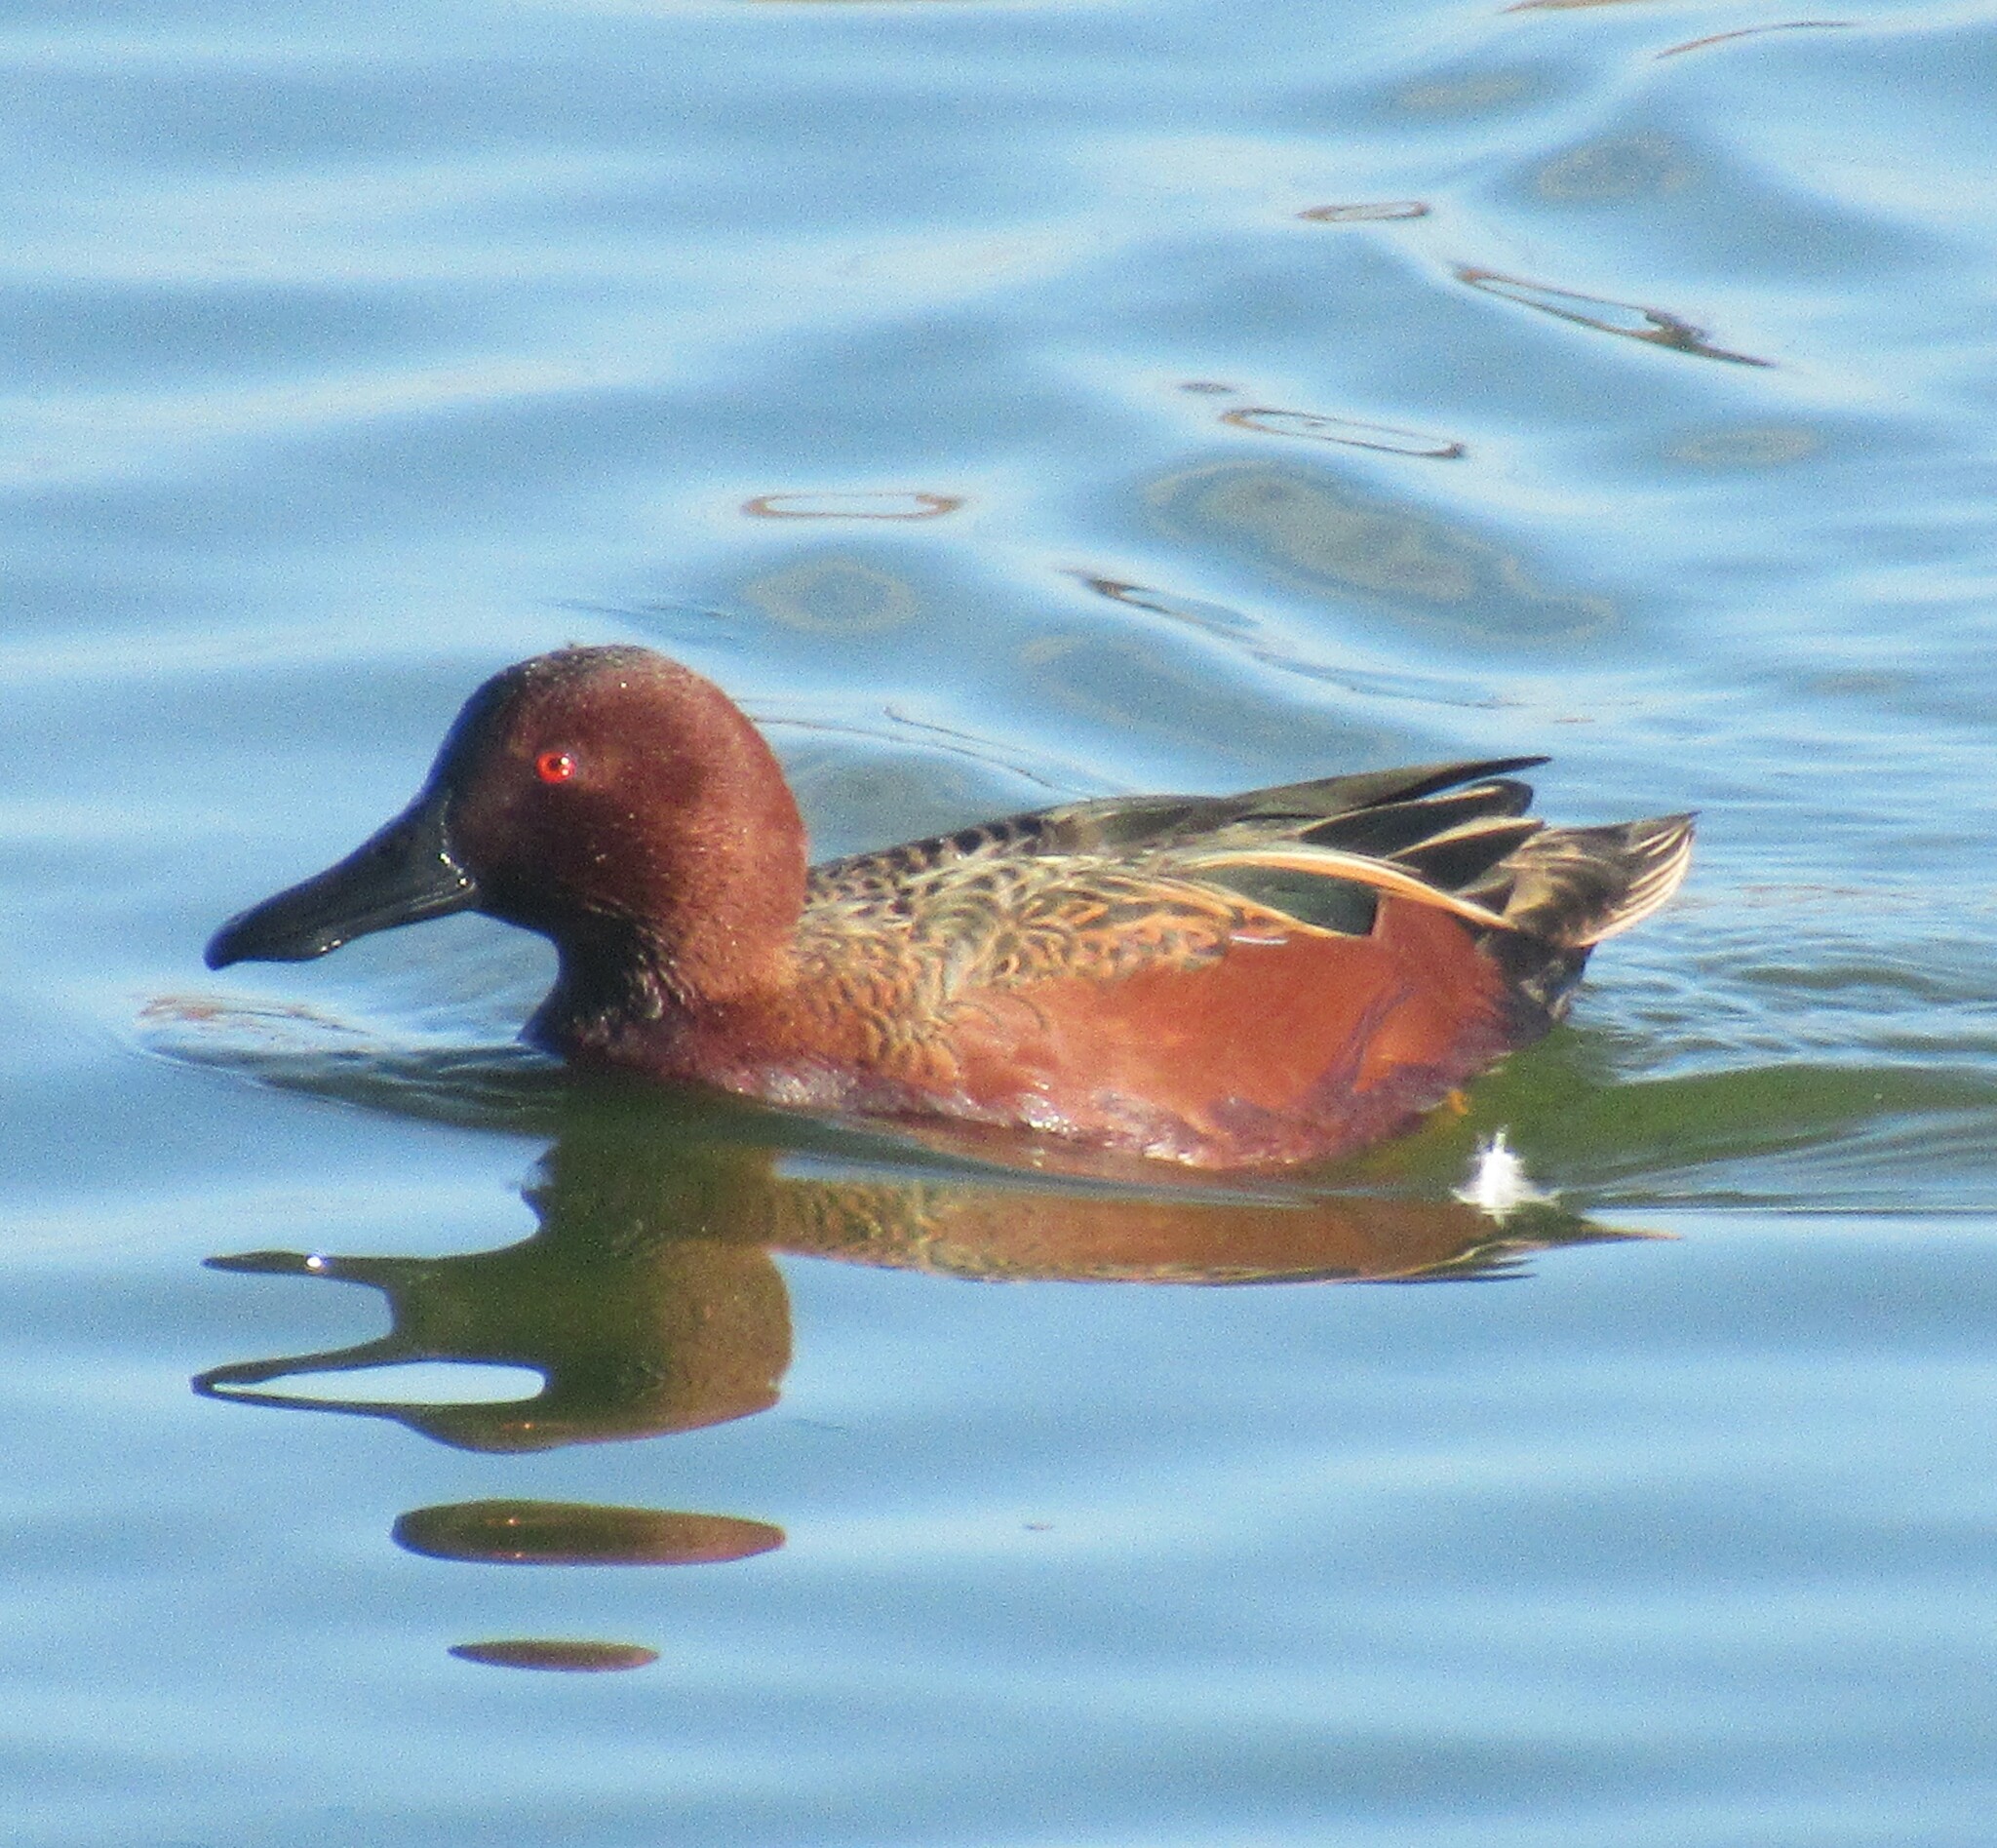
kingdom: Animalia
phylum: Chordata
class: Aves
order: Anseriformes
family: Anatidae
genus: Spatula
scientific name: Spatula cyanoptera
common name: Cinnamon teal
